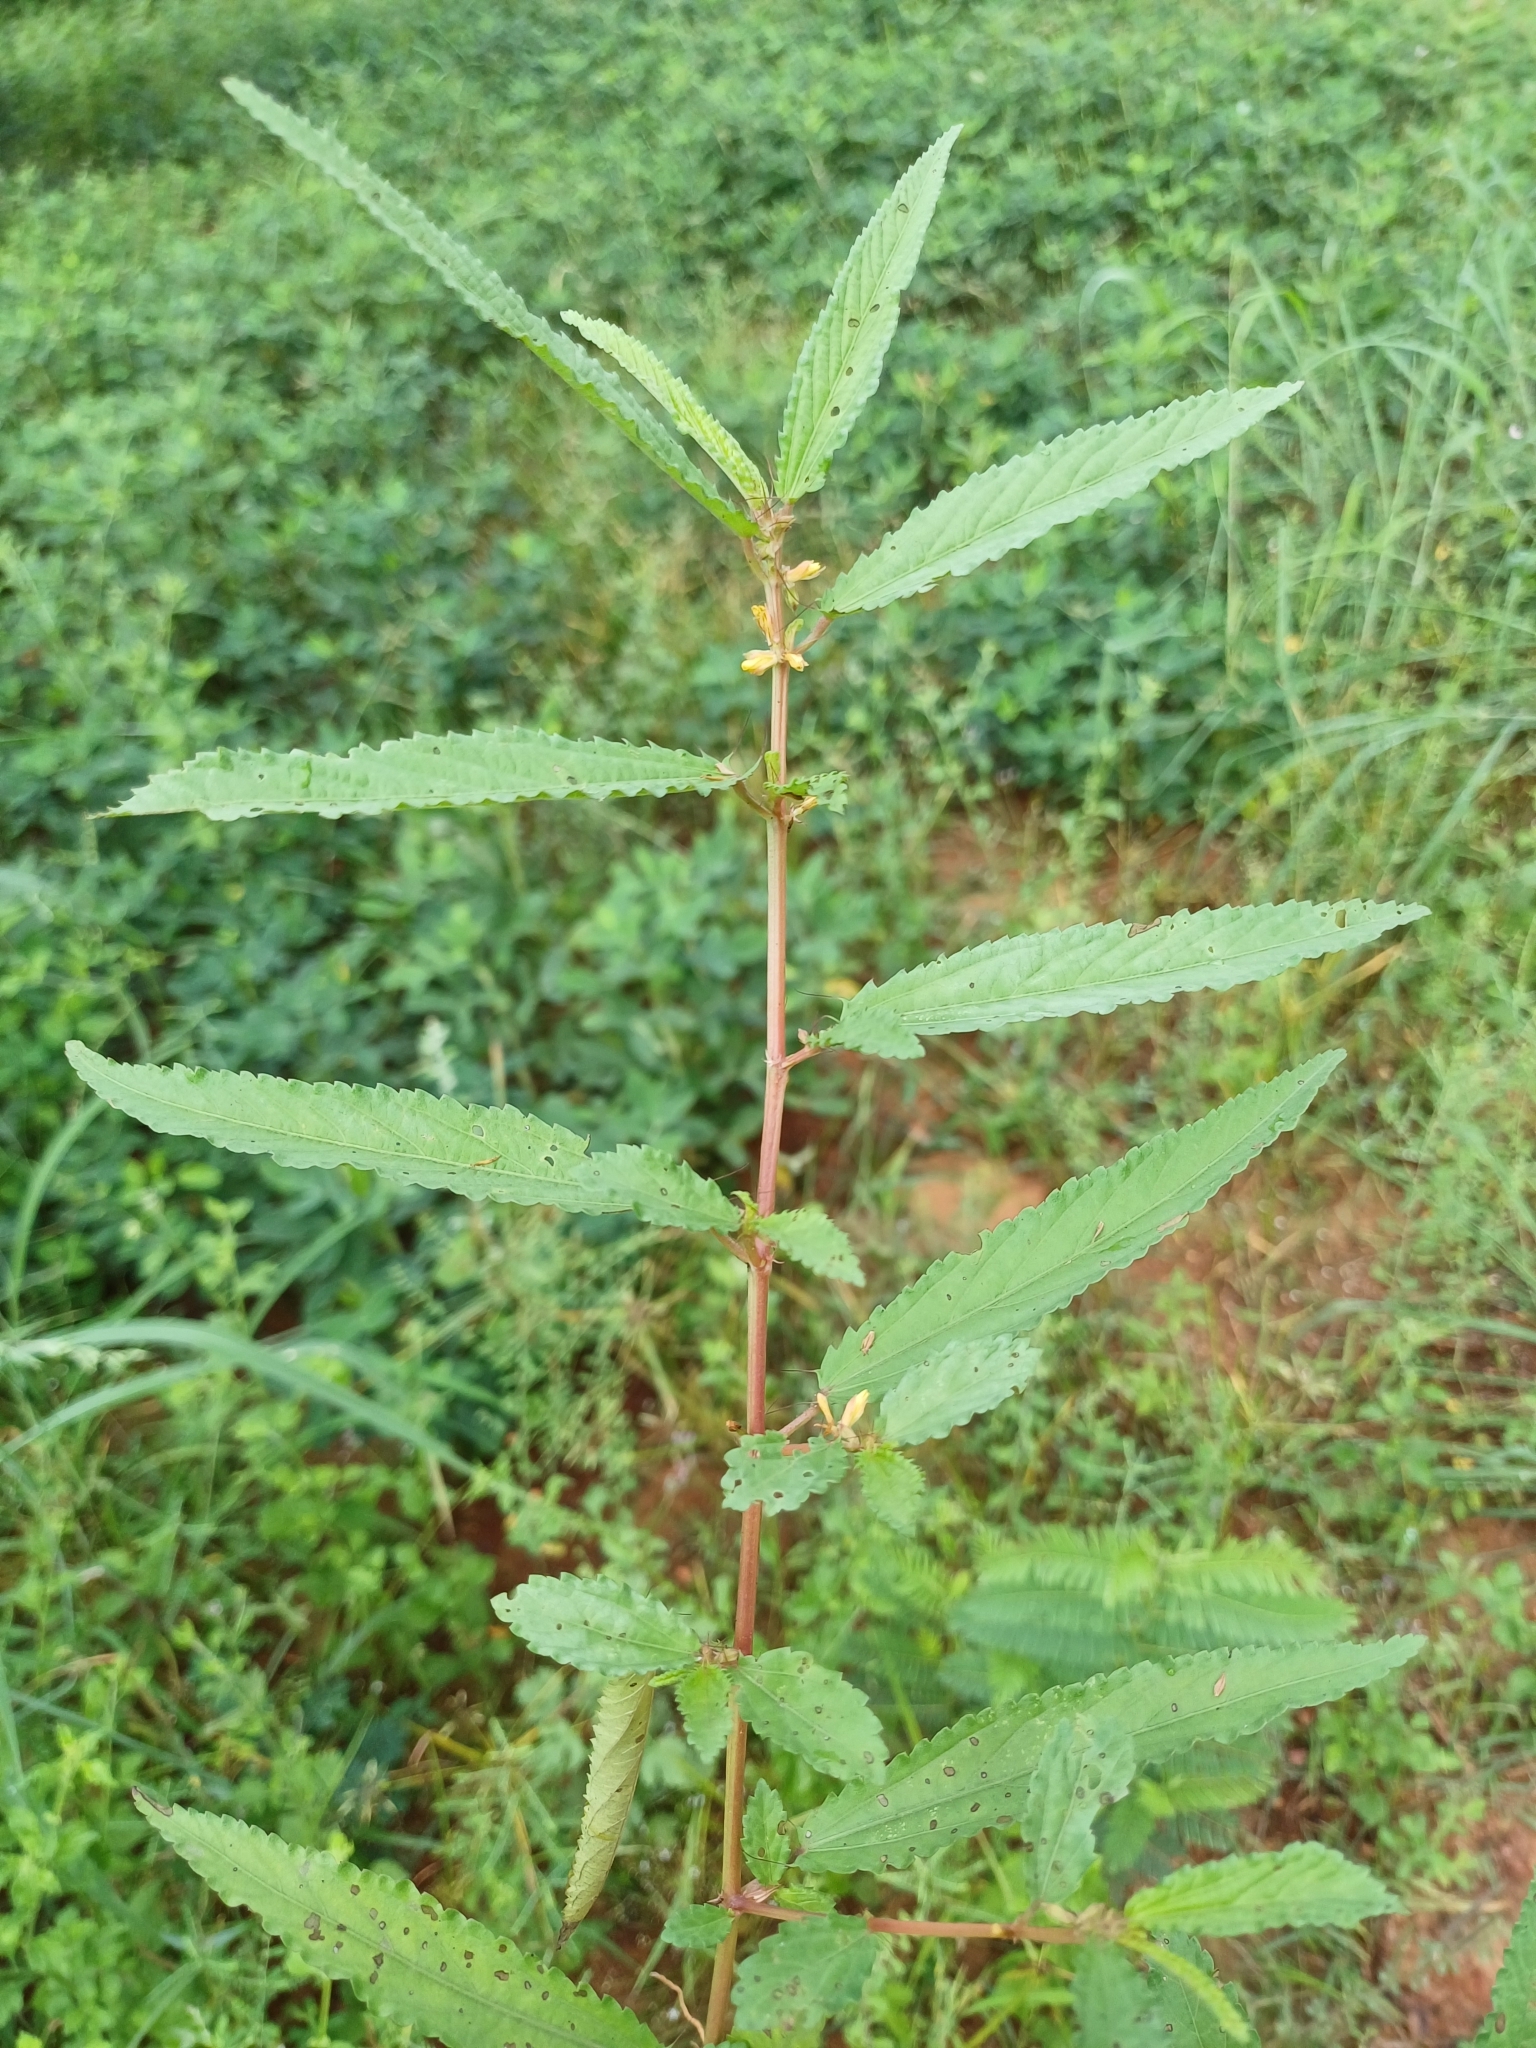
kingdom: Plantae
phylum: Tracheophyta
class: Magnoliopsida
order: Malvales
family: Malvaceae
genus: Corchorus
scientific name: Corchorus tridens
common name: Wild jute
